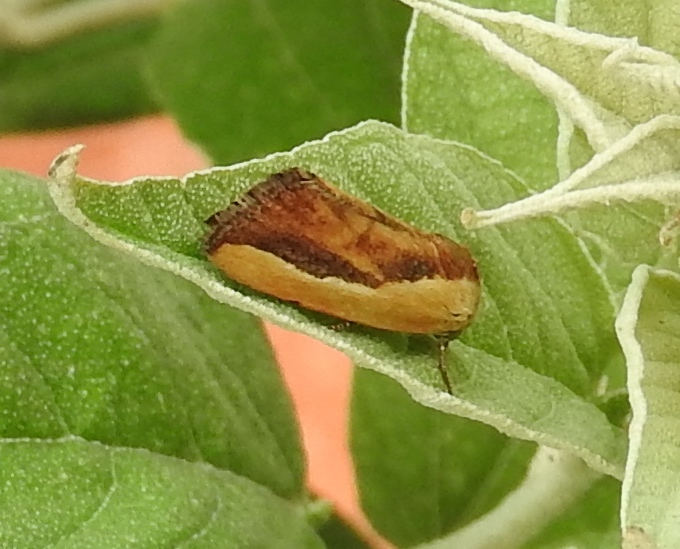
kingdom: Animalia
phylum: Arthropoda
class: Insecta
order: Lepidoptera
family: Noctuidae
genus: Acontia
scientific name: Acontia exigua
